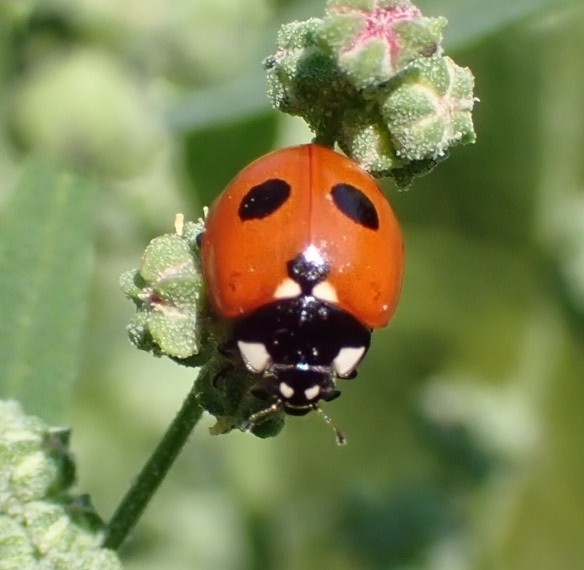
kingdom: Animalia
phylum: Arthropoda
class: Insecta
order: Coleoptera
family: Coccinellidae
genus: Coccinella
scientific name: Coccinella quinquepunctata
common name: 5-spot ladybird
